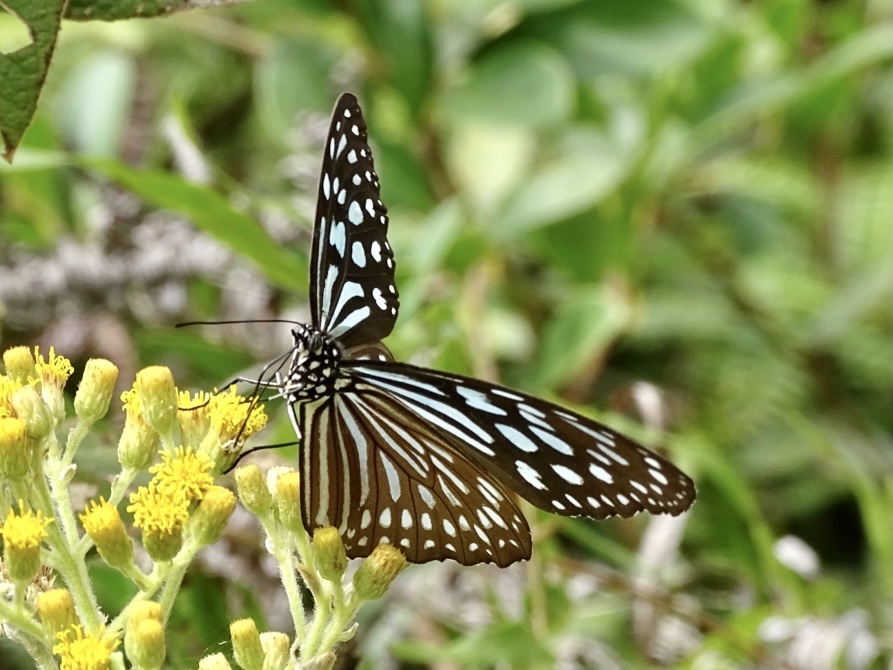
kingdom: Animalia
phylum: Arthropoda
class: Insecta
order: Lepidoptera
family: Nymphalidae
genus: Ideopsis
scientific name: Ideopsis similis
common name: Ceylon blue glassy tiger
